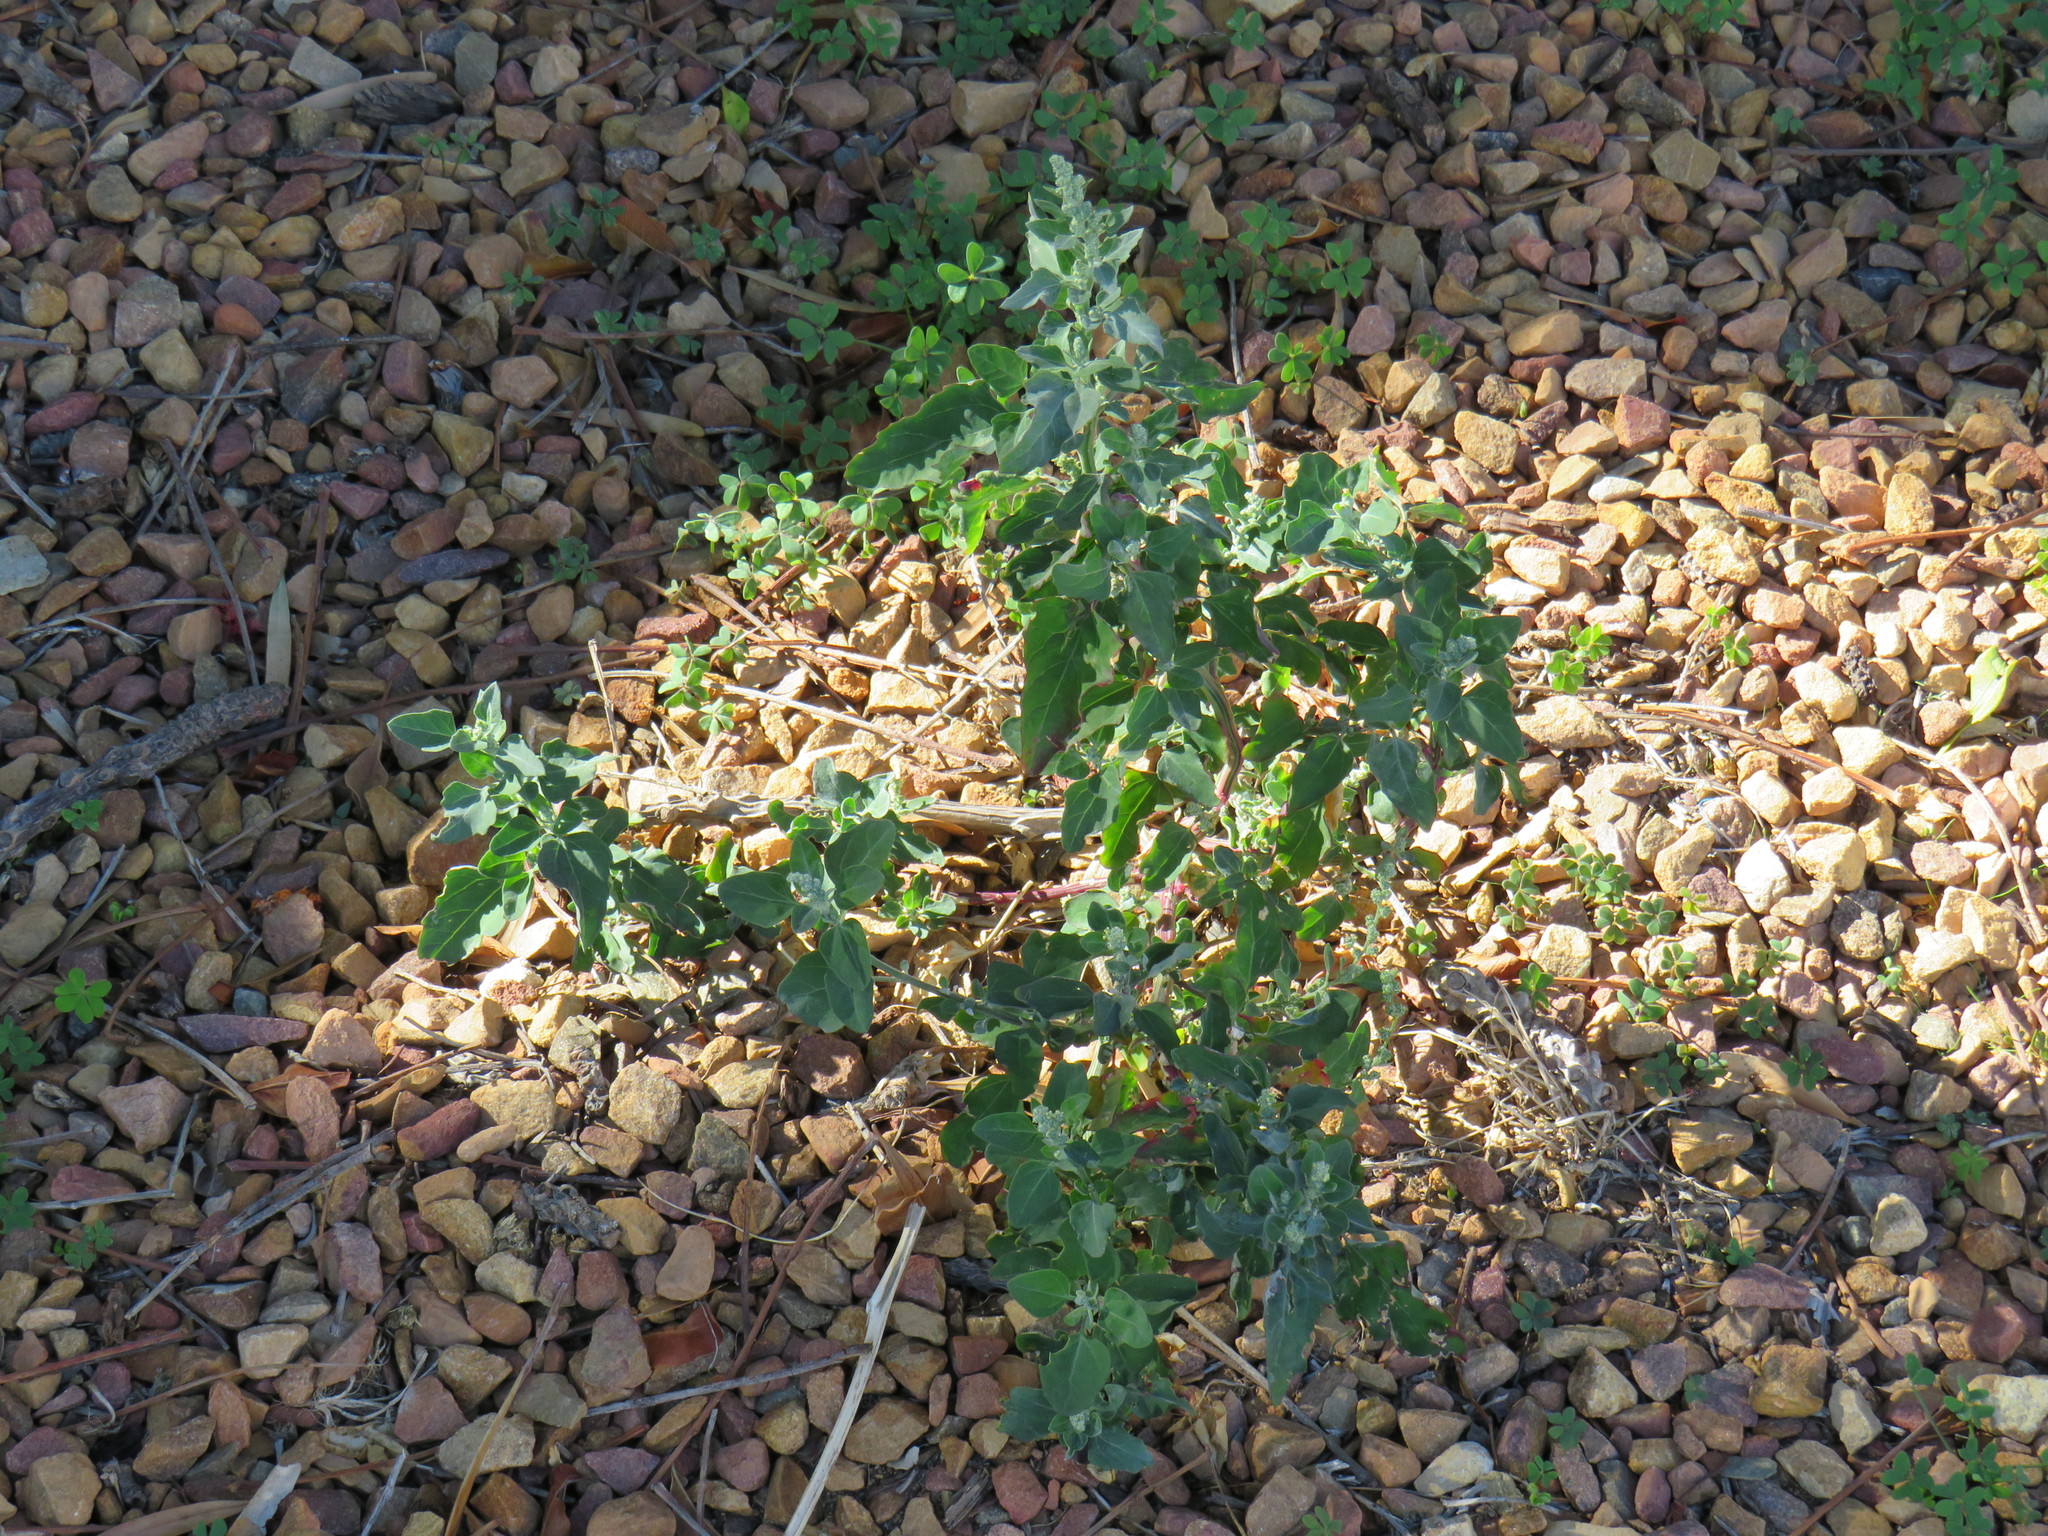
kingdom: Plantae
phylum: Tracheophyta
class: Magnoliopsida
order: Caryophyllales
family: Amaranthaceae
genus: Chenopodium
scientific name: Chenopodium album
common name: Fat-hen
